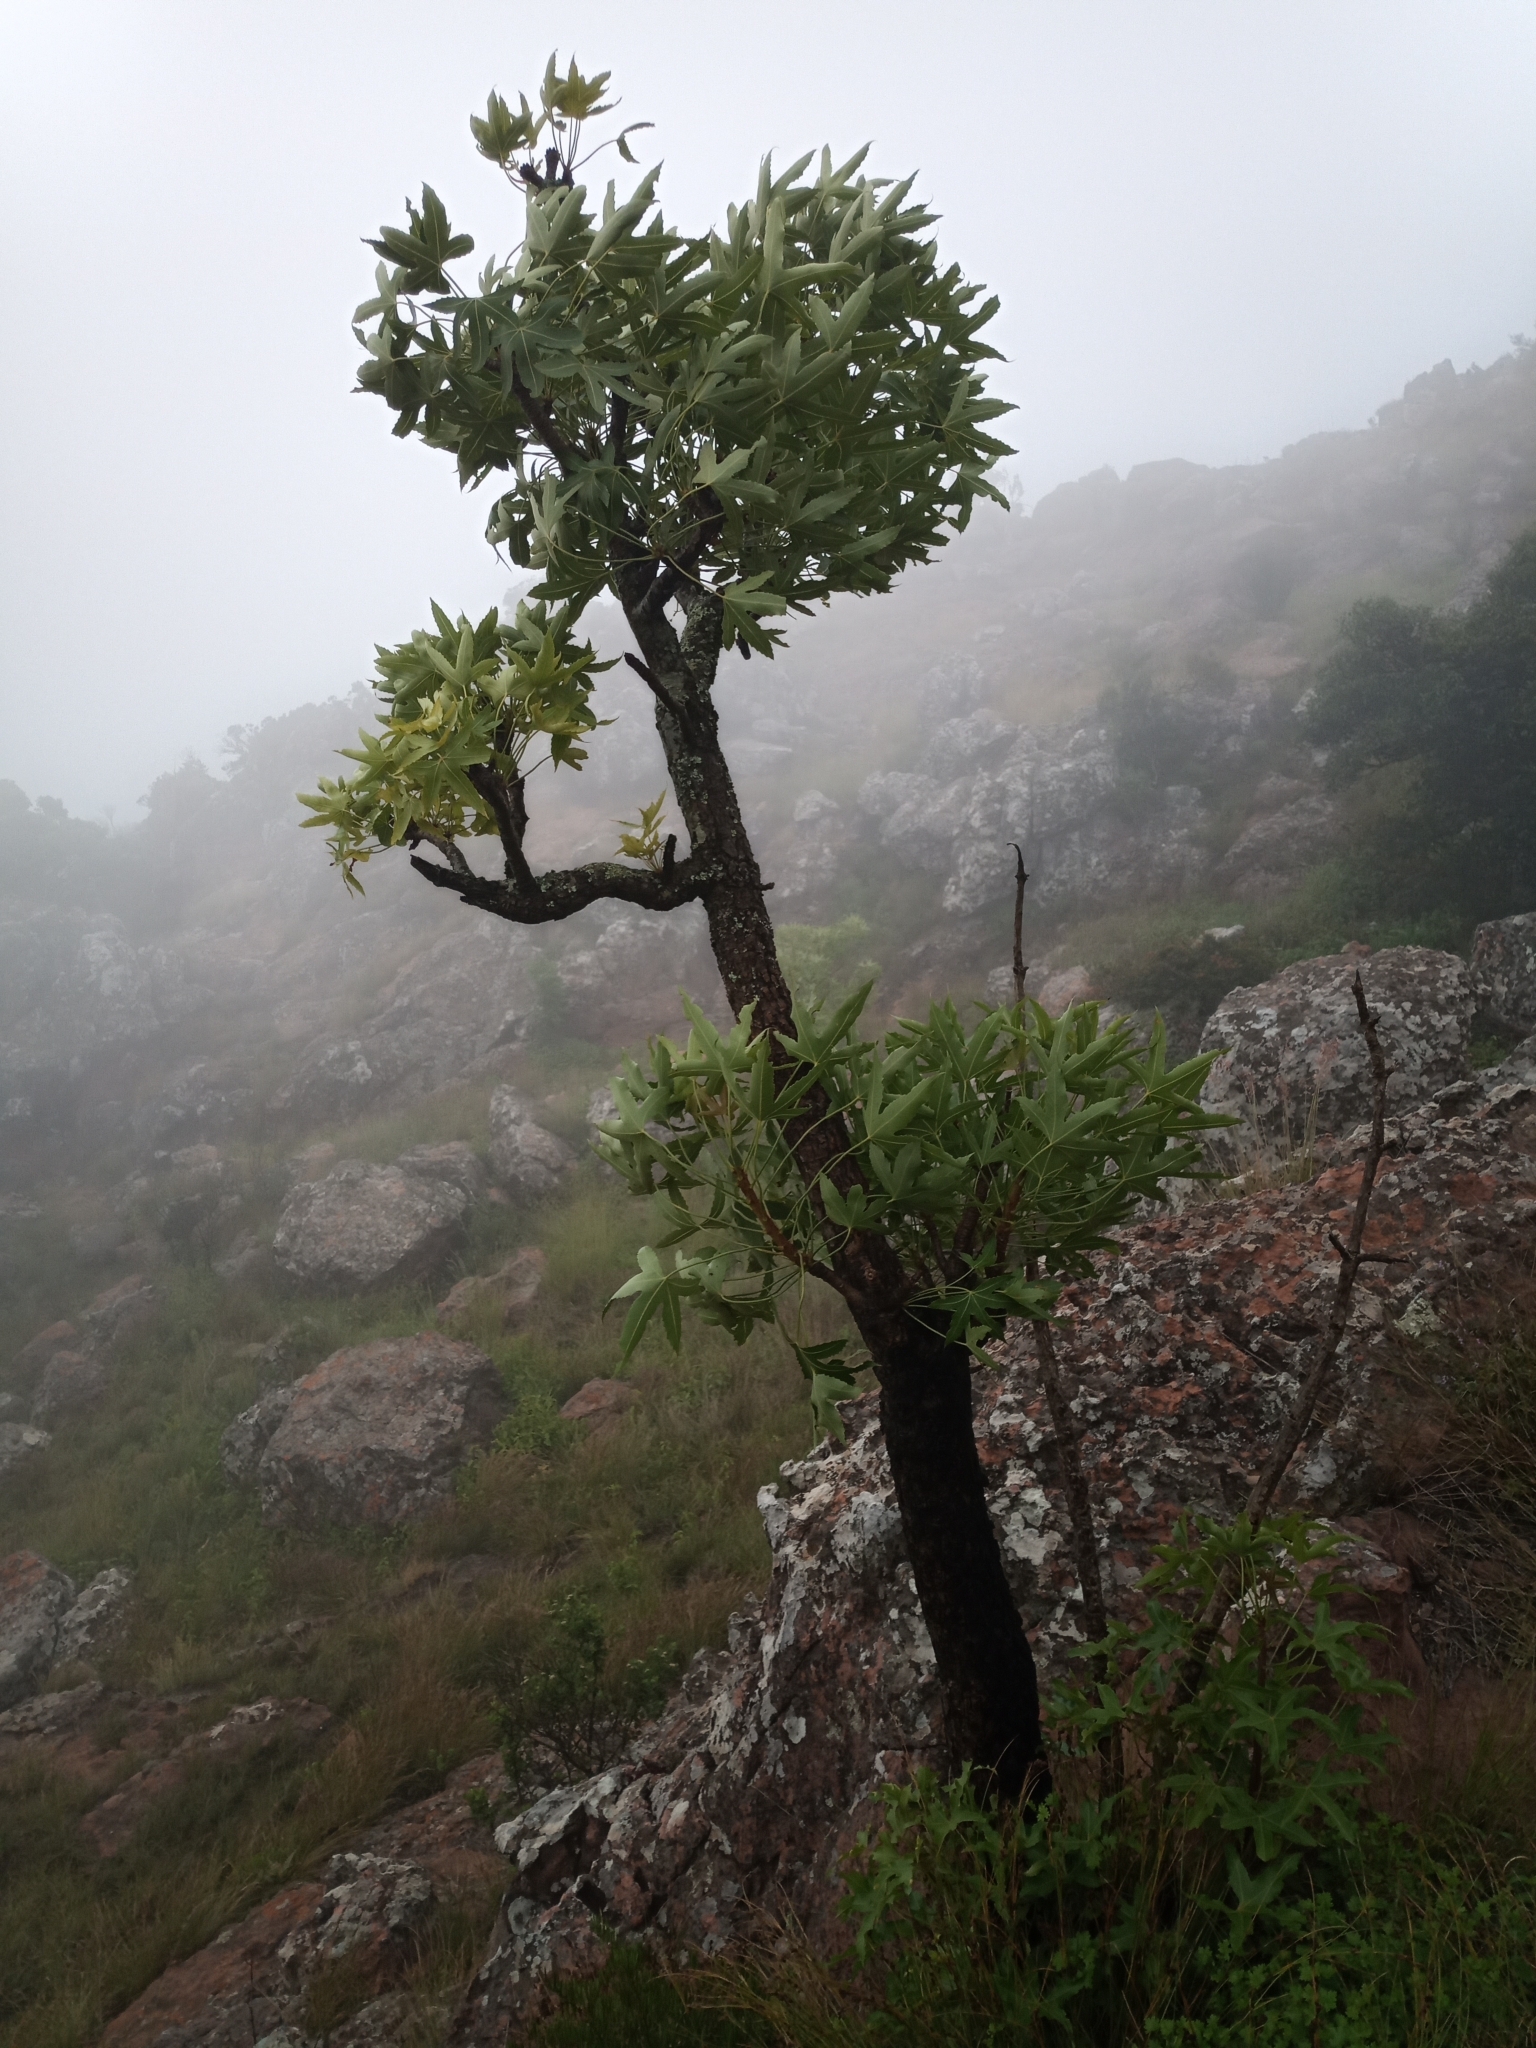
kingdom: Plantae
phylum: Tracheophyta
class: Magnoliopsida
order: Apiales
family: Araliaceae
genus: Cussonia
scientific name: Cussonia natalensis
